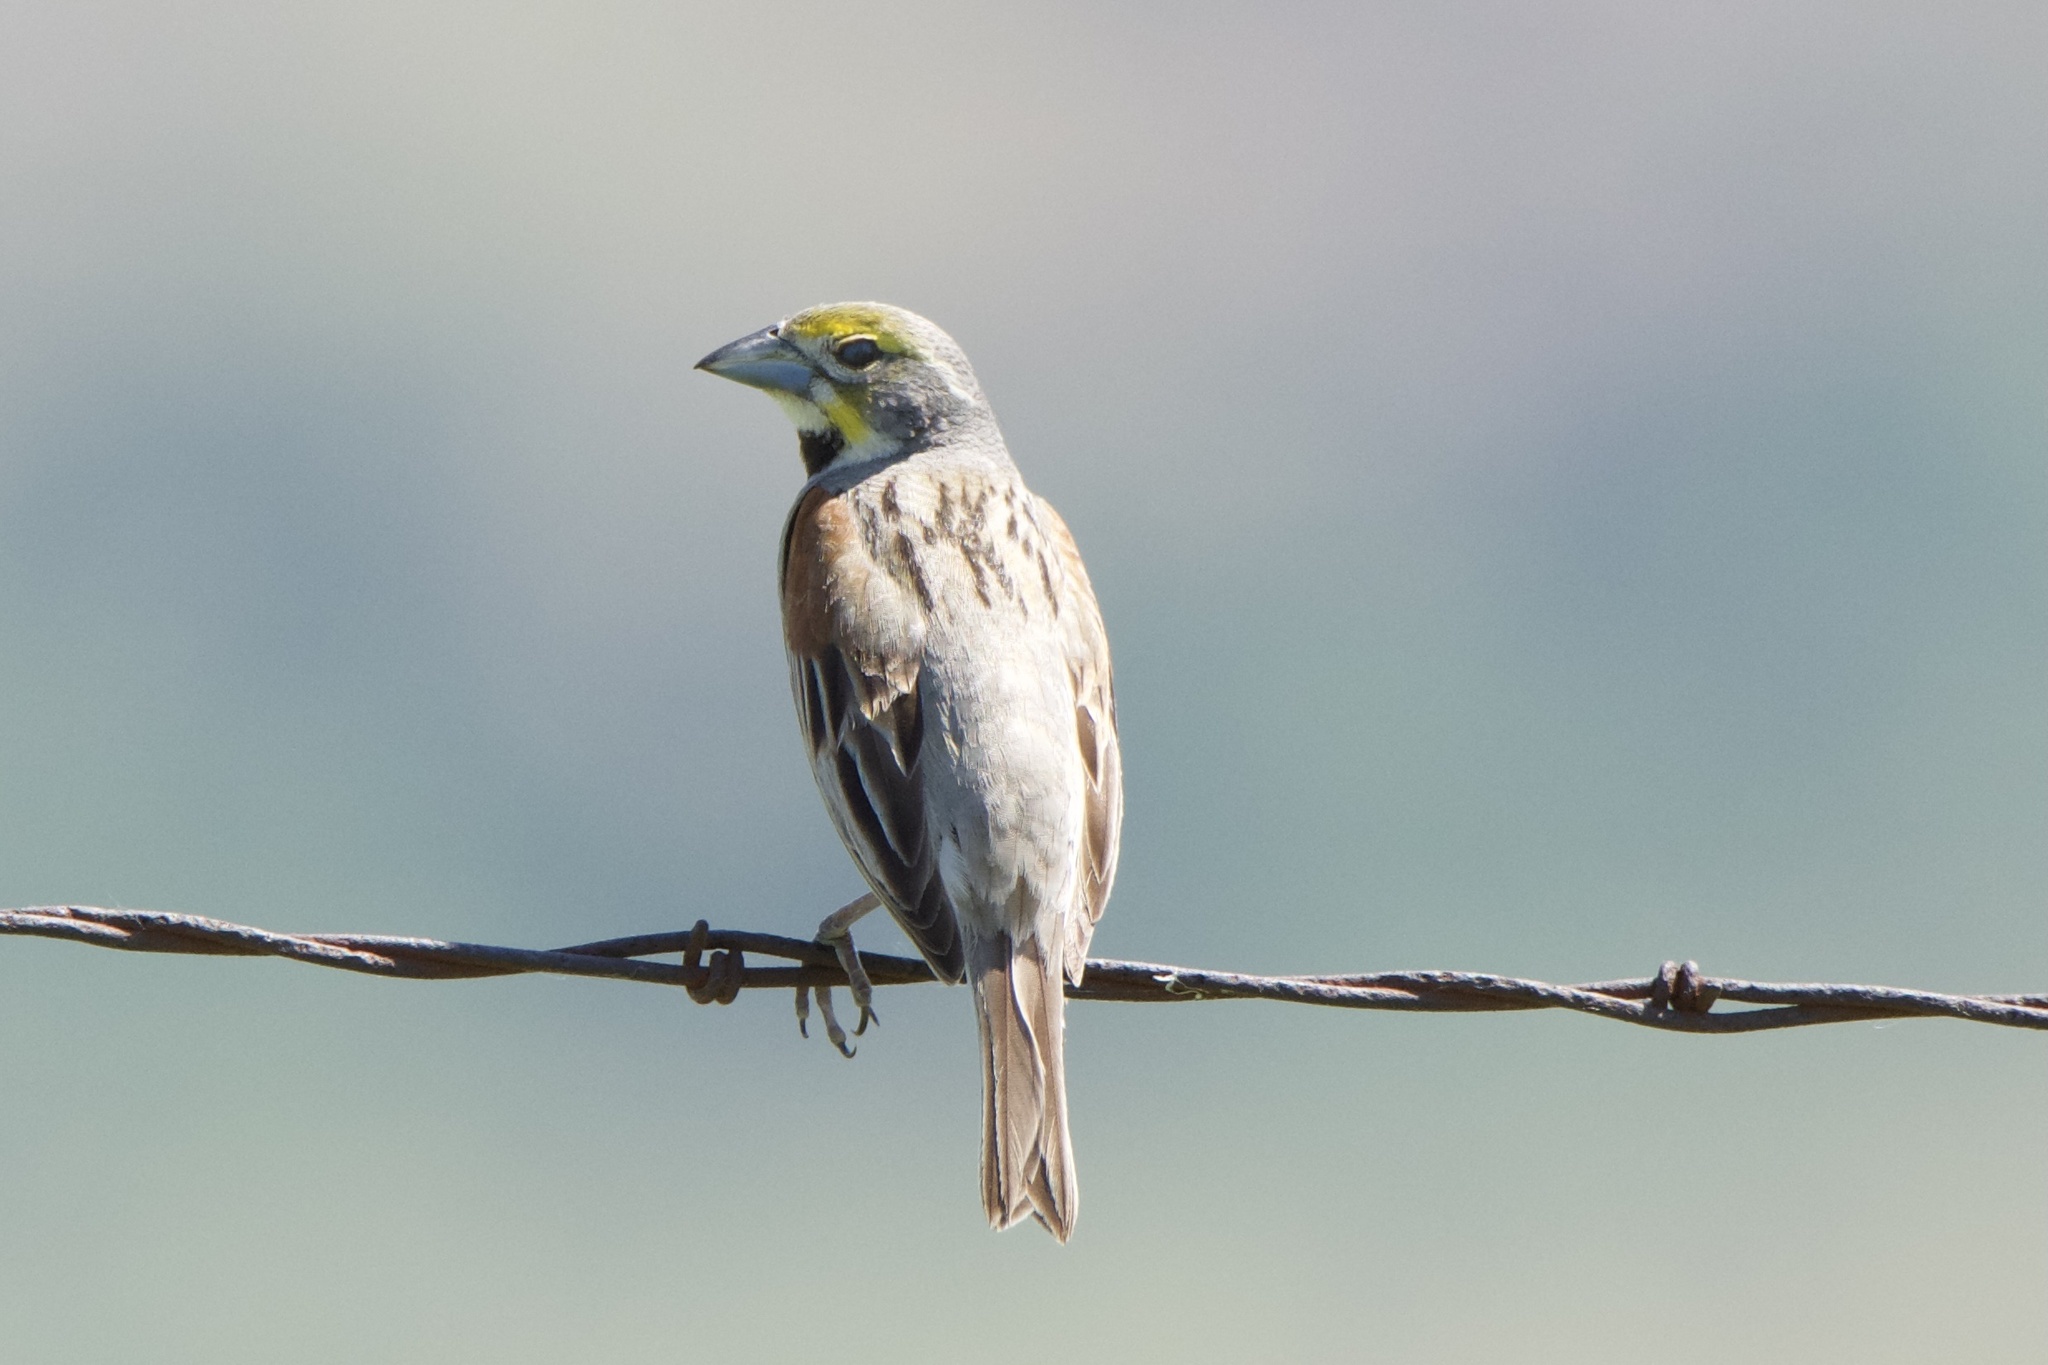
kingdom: Animalia
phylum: Chordata
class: Aves
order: Passeriformes
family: Cardinalidae
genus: Spiza
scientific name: Spiza americana
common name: Dickcissel
